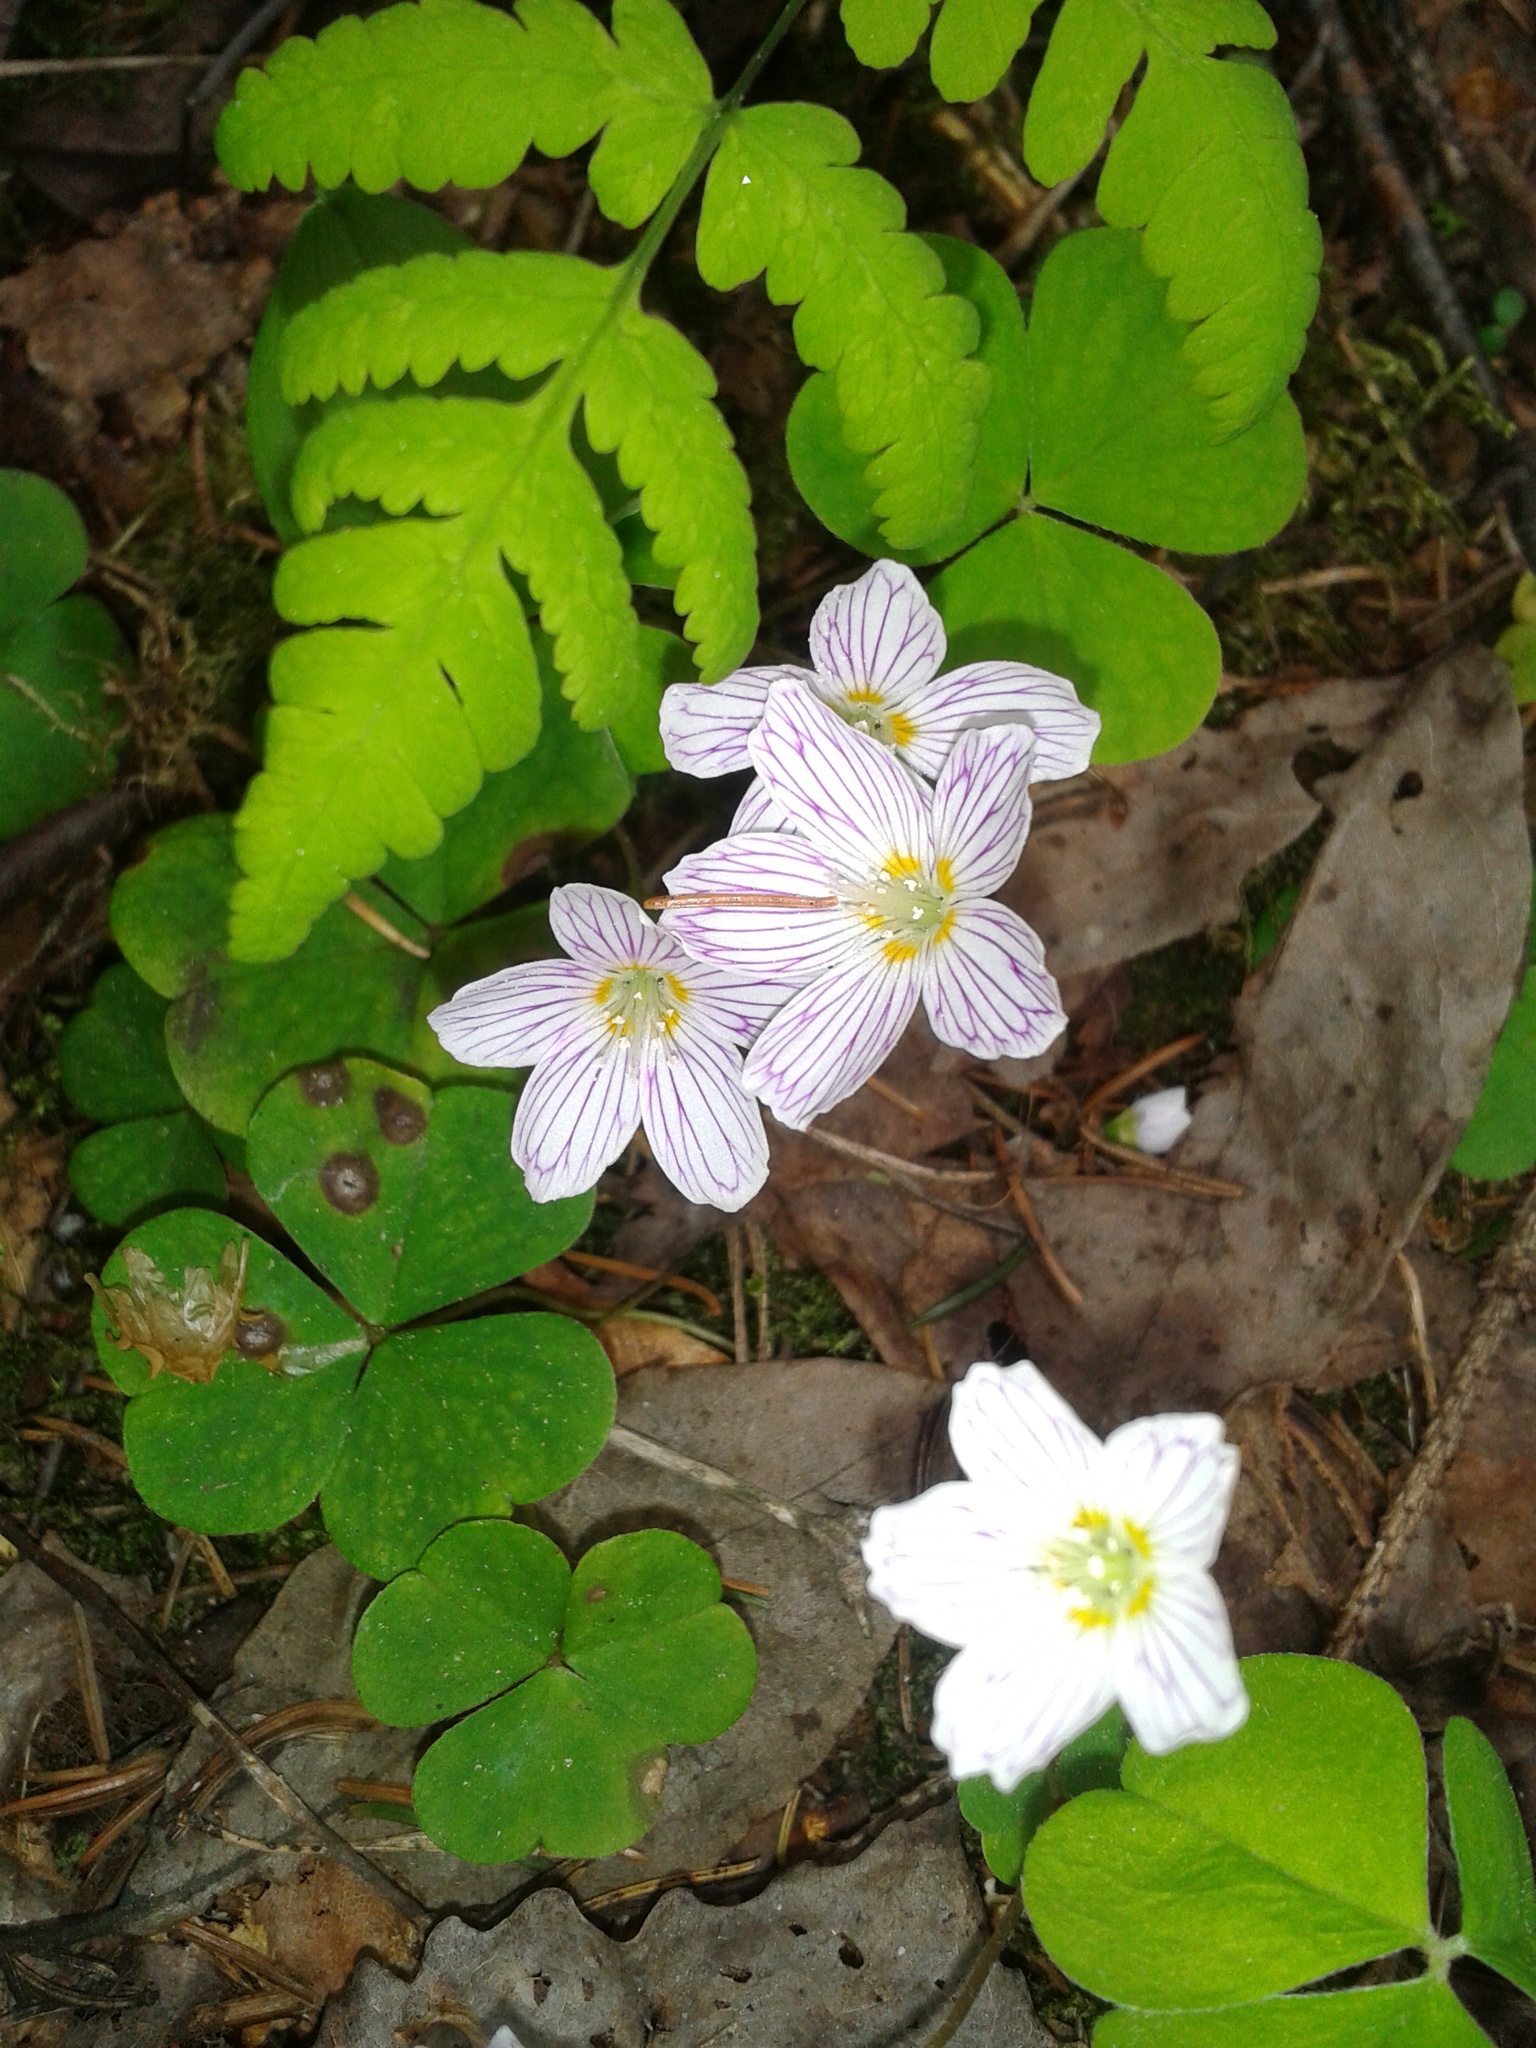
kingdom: Plantae
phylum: Tracheophyta
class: Magnoliopsida
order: Oxalidales
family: Oxalidaceae
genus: Oxalis
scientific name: Oxalis acetosella
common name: Wood-sorrel
